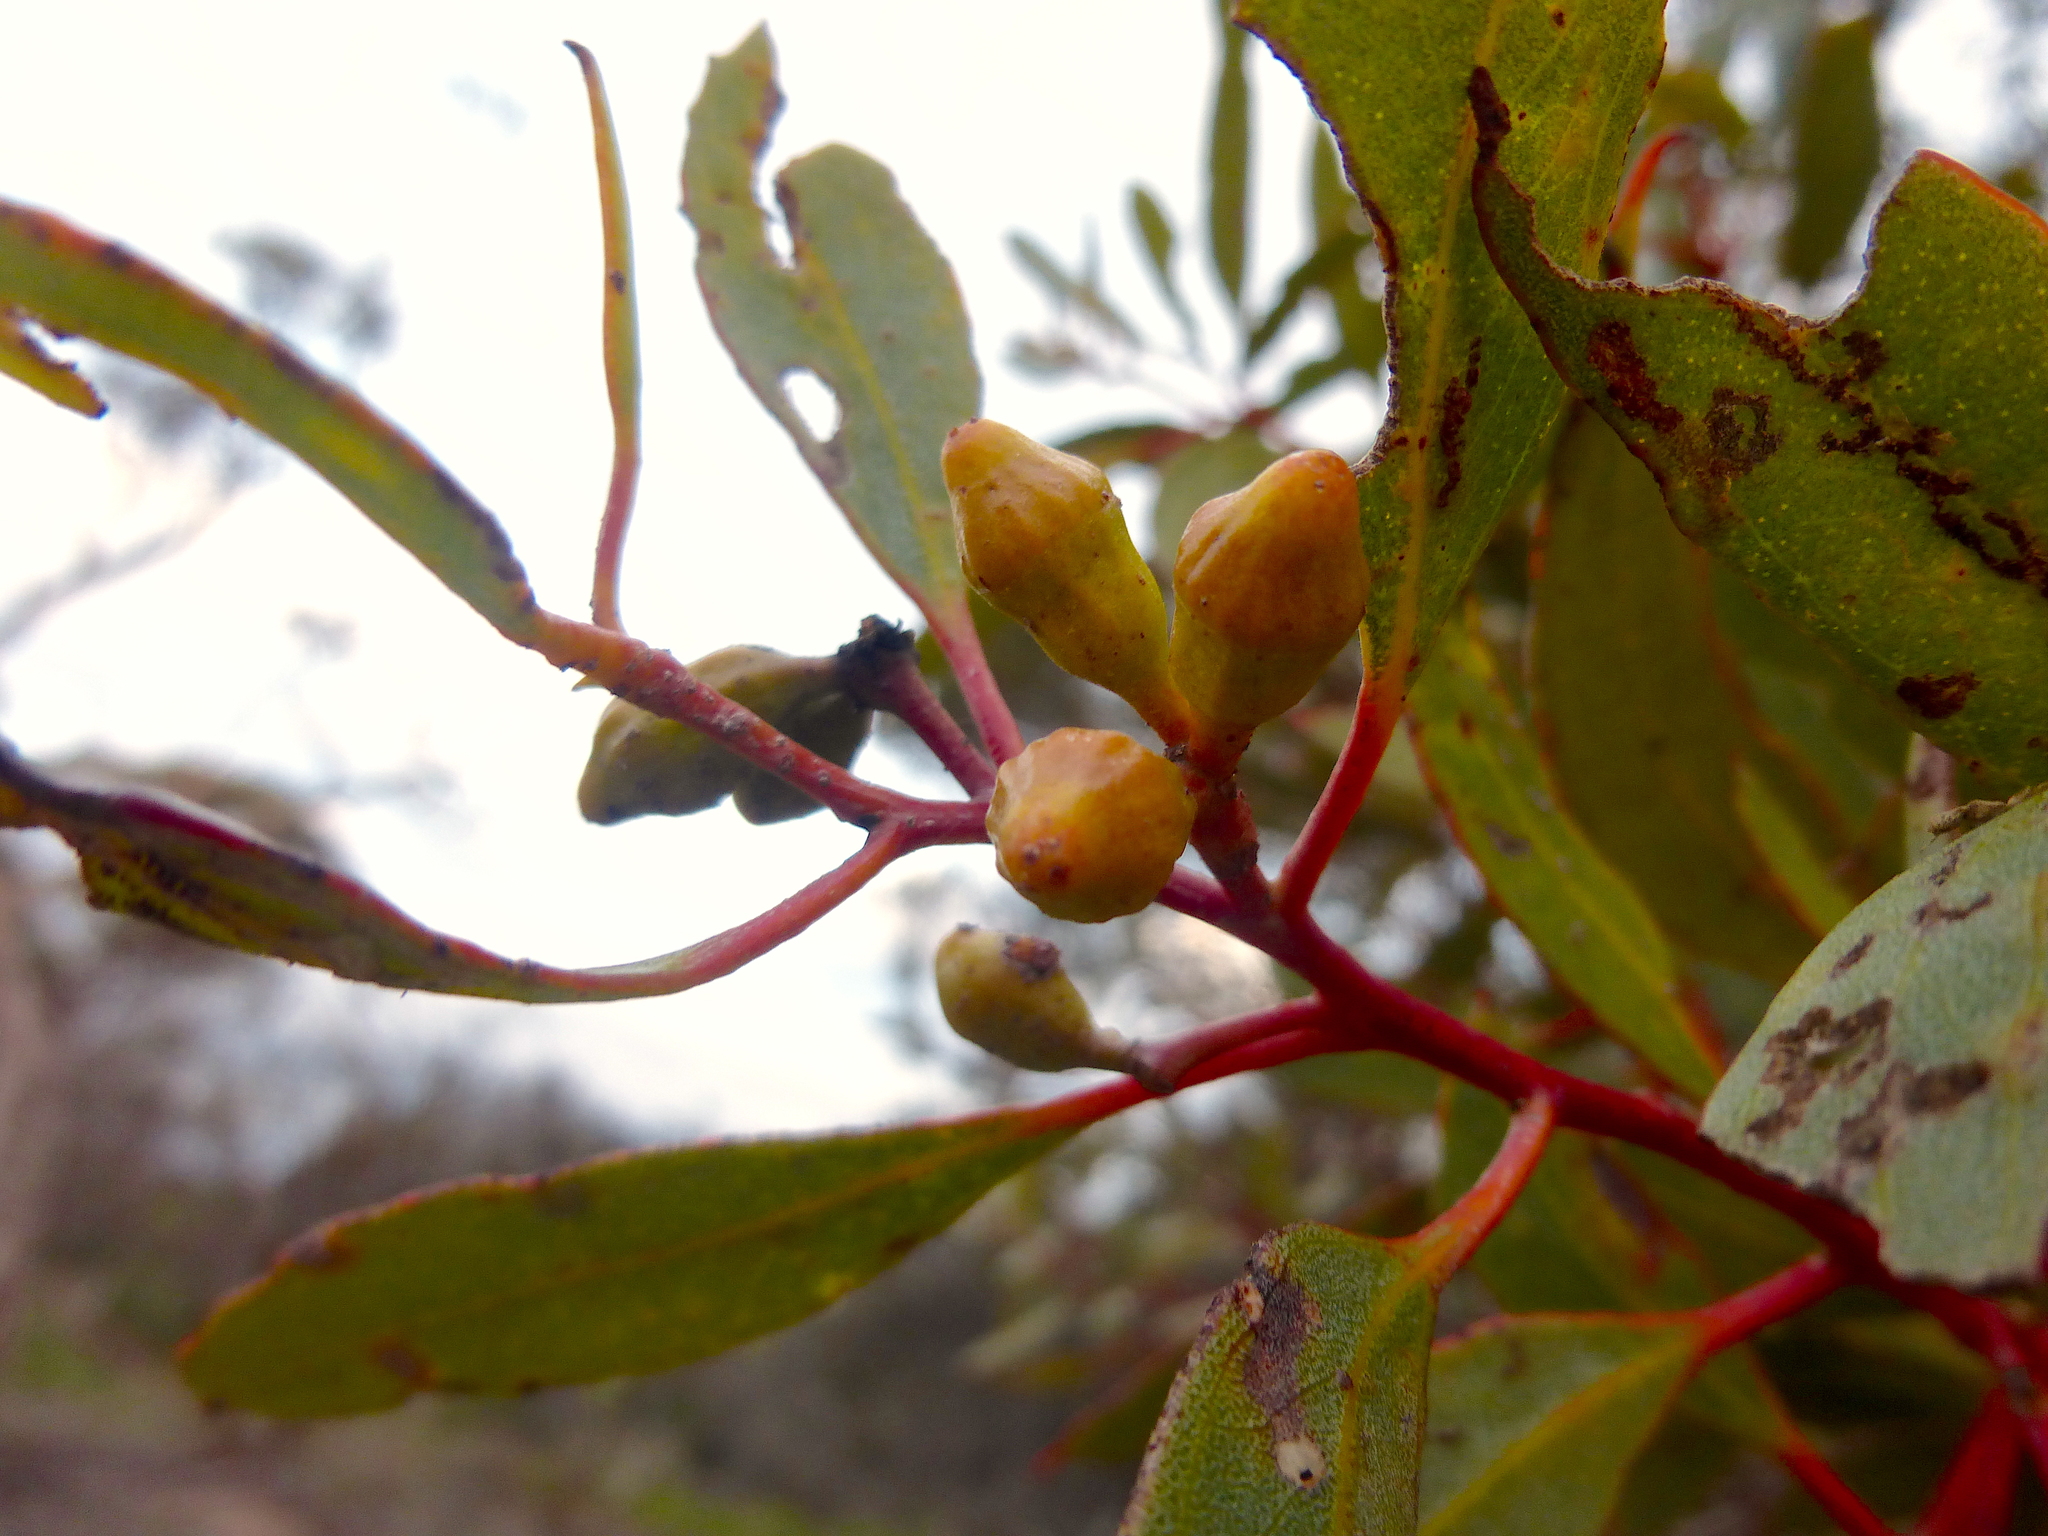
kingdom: Plantae
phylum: Tracheophyta
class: Magnoliopsida
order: Myrtales
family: Myrtaceae
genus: Eucalyptus
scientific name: Eucalyptus incrassata
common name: Ridge-fruit mallee
